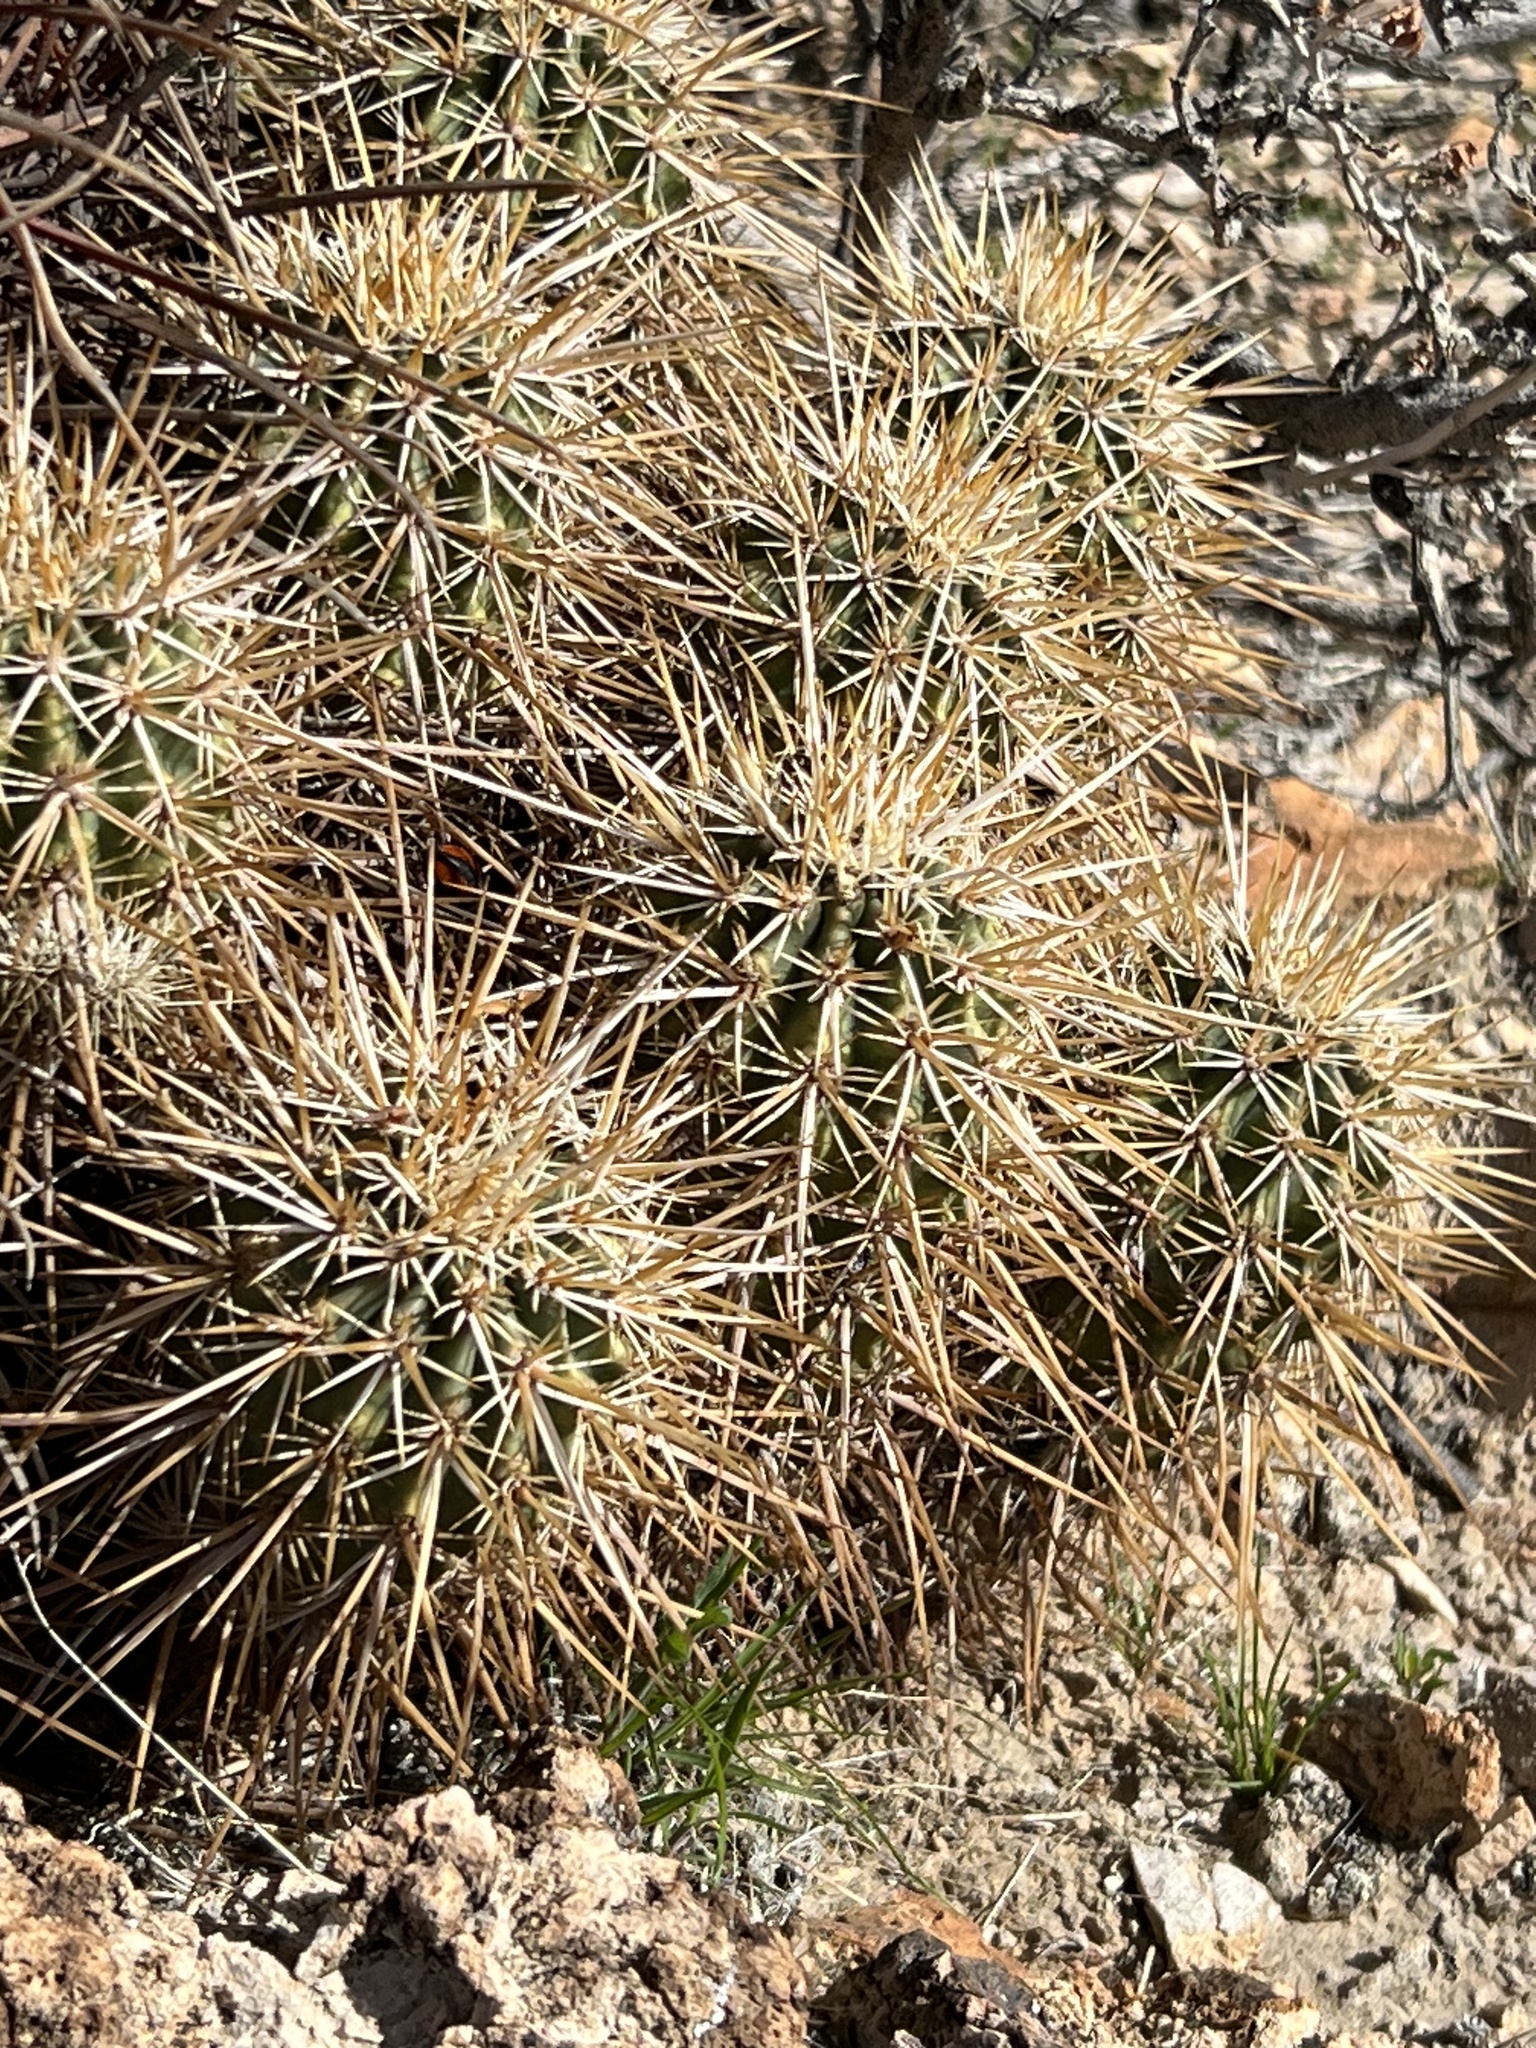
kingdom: Plantae
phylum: Tracheophyta
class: Magnoliopsida
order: Caryophyllales
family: Cactaceae
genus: Echinocereus
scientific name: Echinocereus engelmannii
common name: Engelmann's hedgehog cactus
